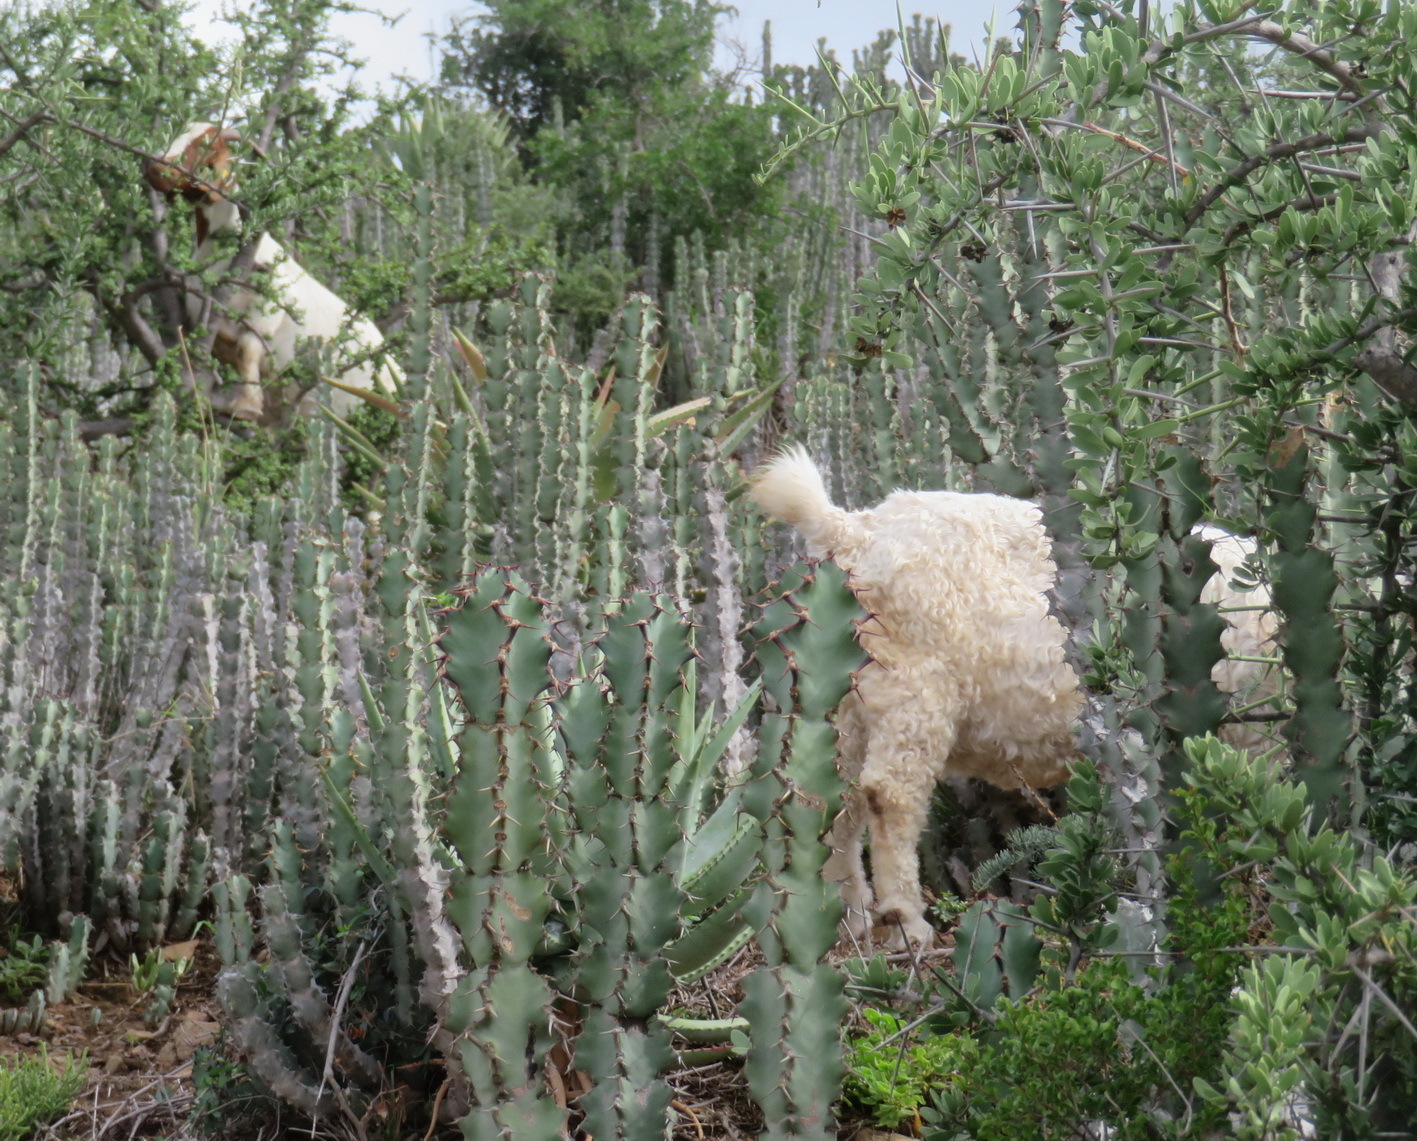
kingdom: Animalia
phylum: Chordata
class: Mammalia
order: Artiodactyla
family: Bovidae
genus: Capra
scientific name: Capra hircus
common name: Domestic goat
